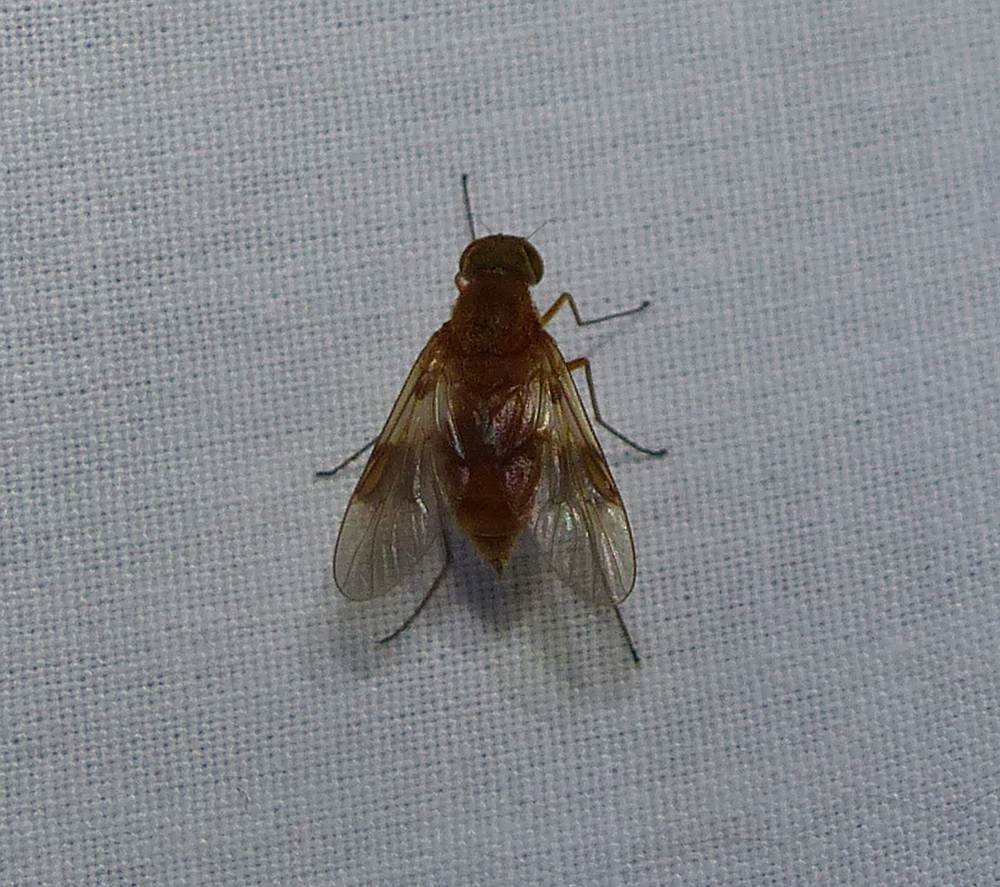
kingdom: Animalia
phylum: Arthropoda
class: Insecta
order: Diptera
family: Rhagionidae
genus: Chrysopilus
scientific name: Chrysopilus quadratus
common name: Quadrate snipe fly
